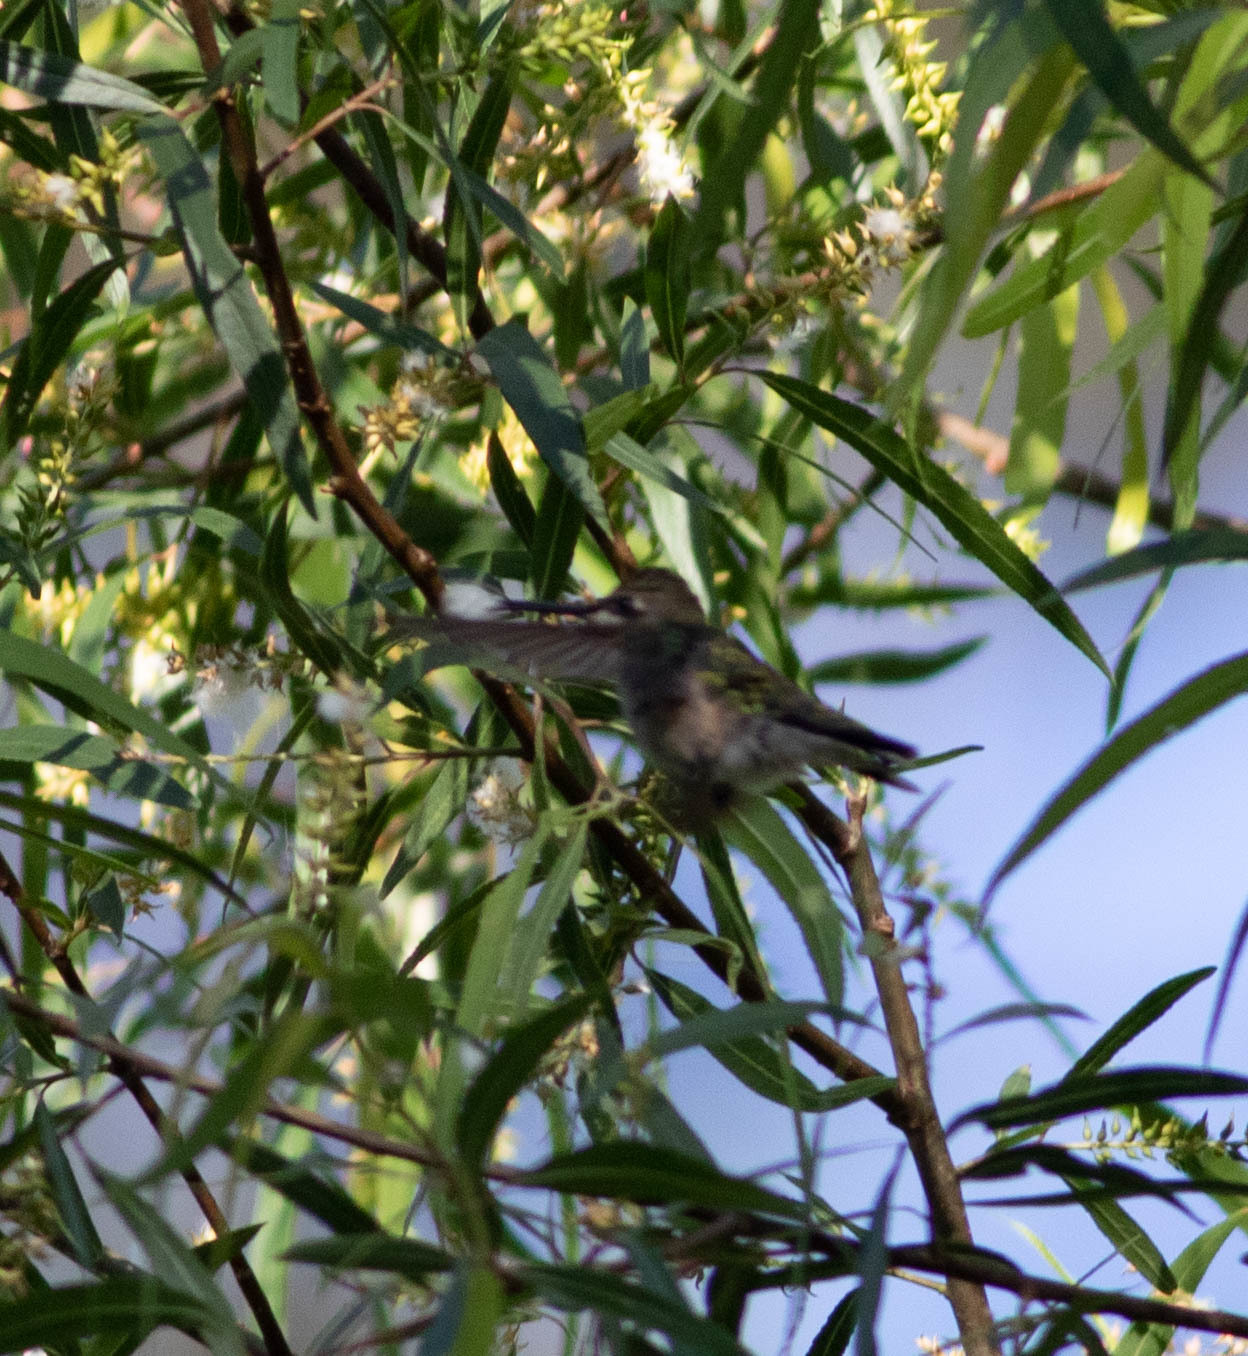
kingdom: Animalia
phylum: Chordata
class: Aves
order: Apodiformes
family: Trochilidae
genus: Archilochus
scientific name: Archilochus colubris
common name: Ruby-throated hummingbird
